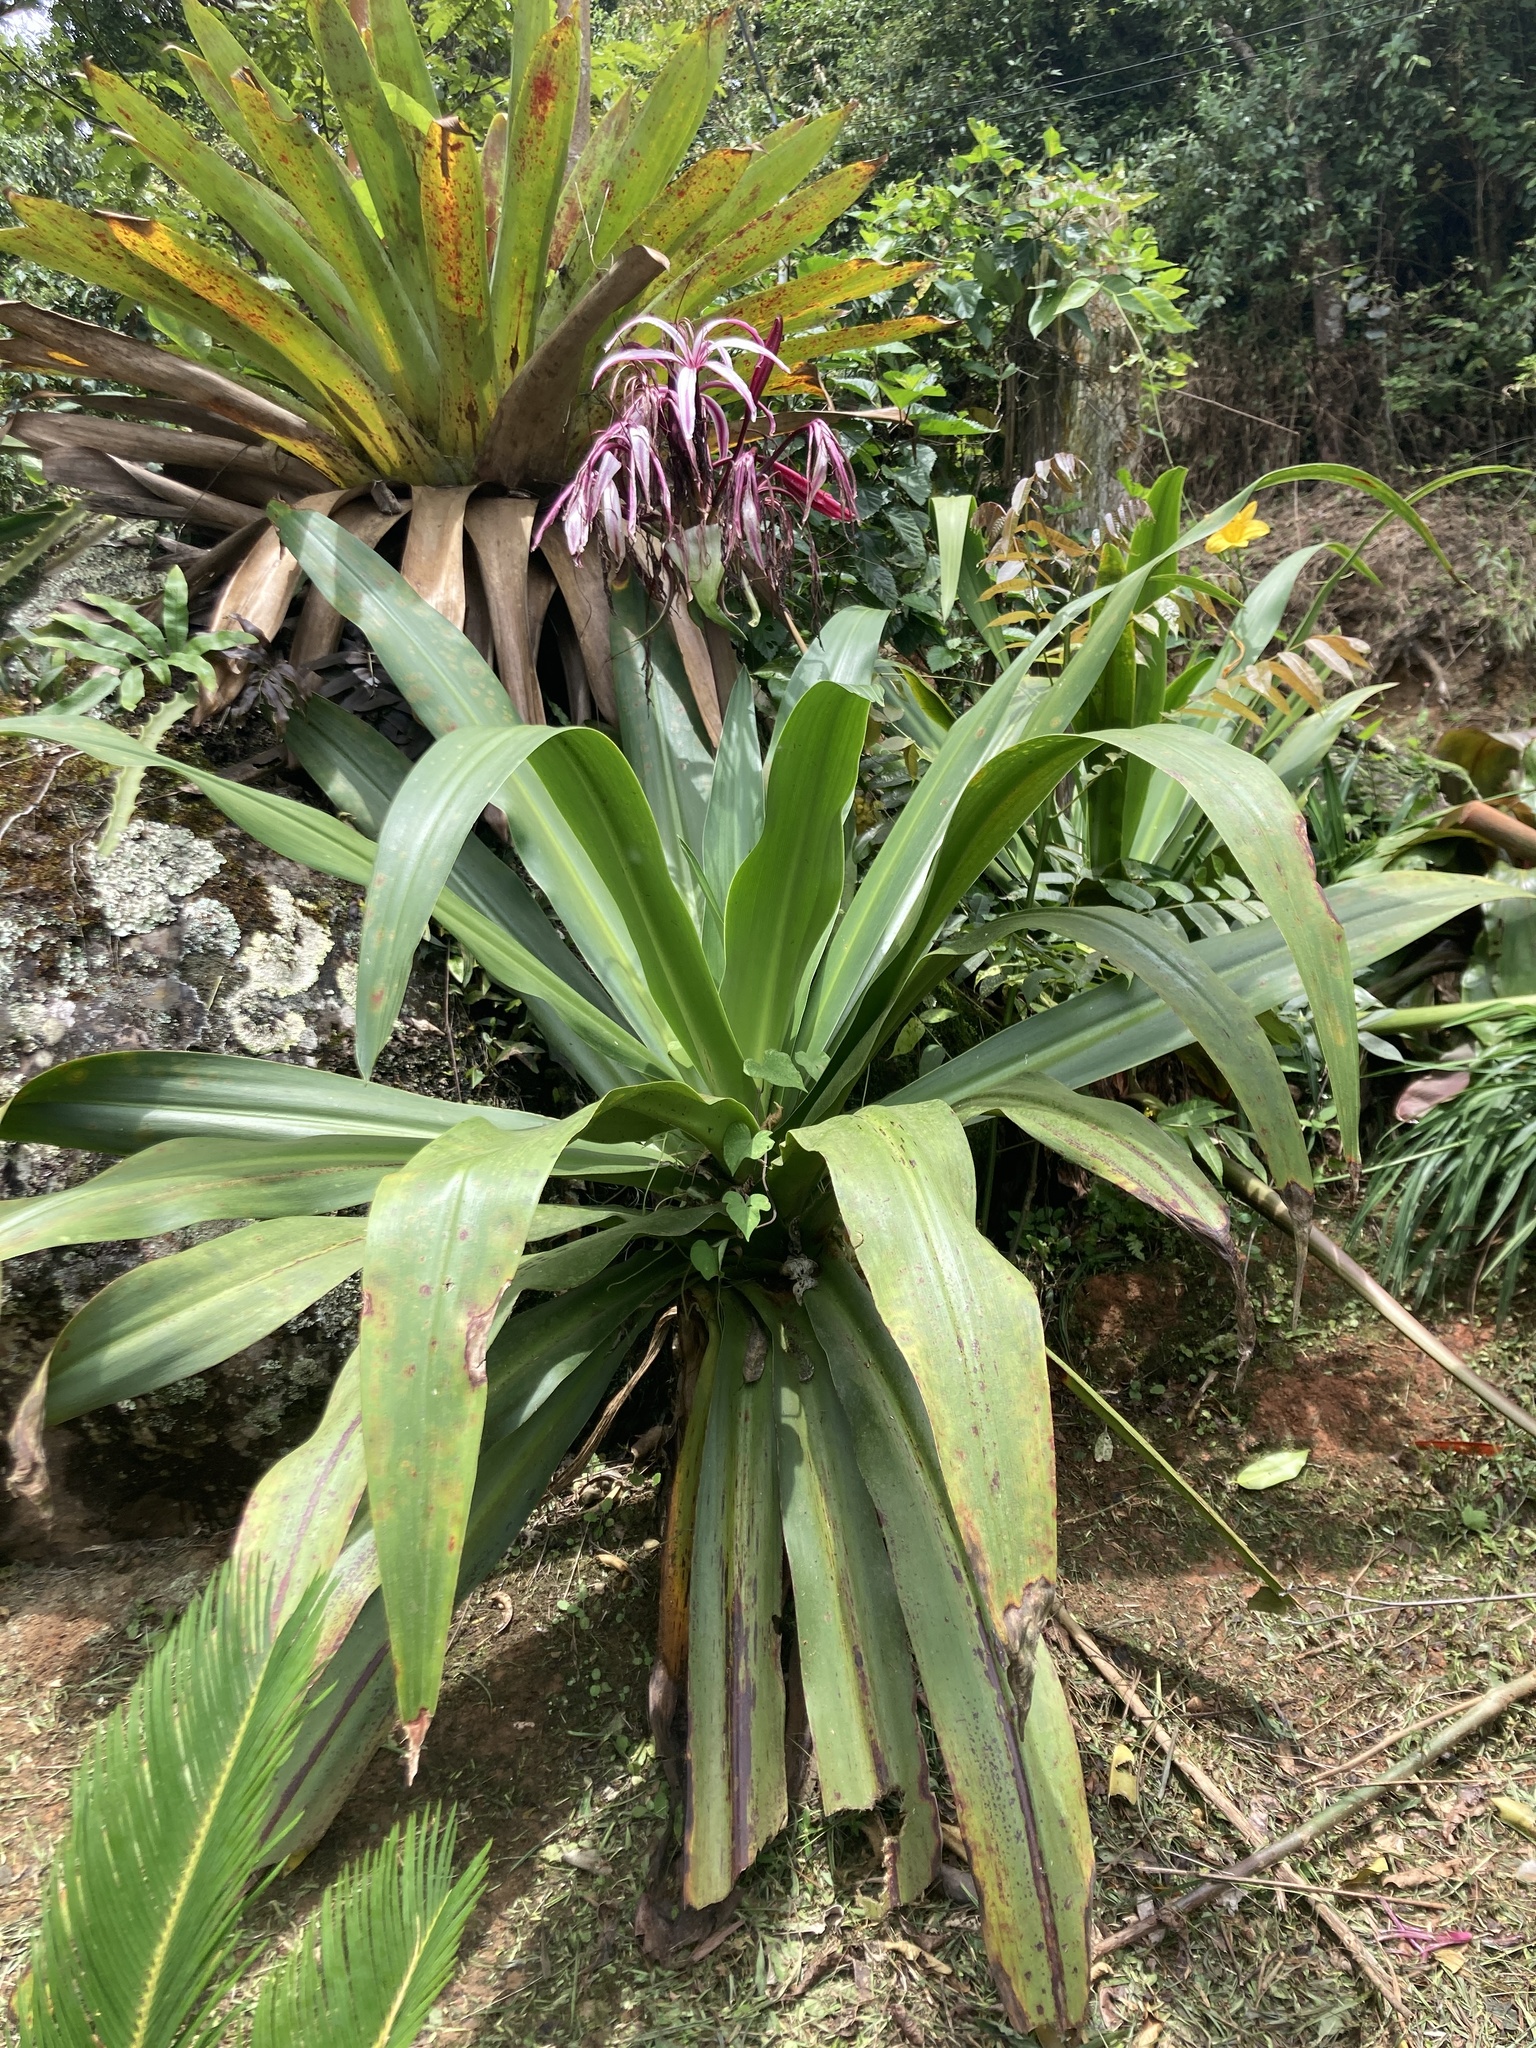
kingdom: Plantae
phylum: Tracheophyta
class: Liliopsida
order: Asparagales
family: Amaryllidaceae
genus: Crinum
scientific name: Crinum amabile
